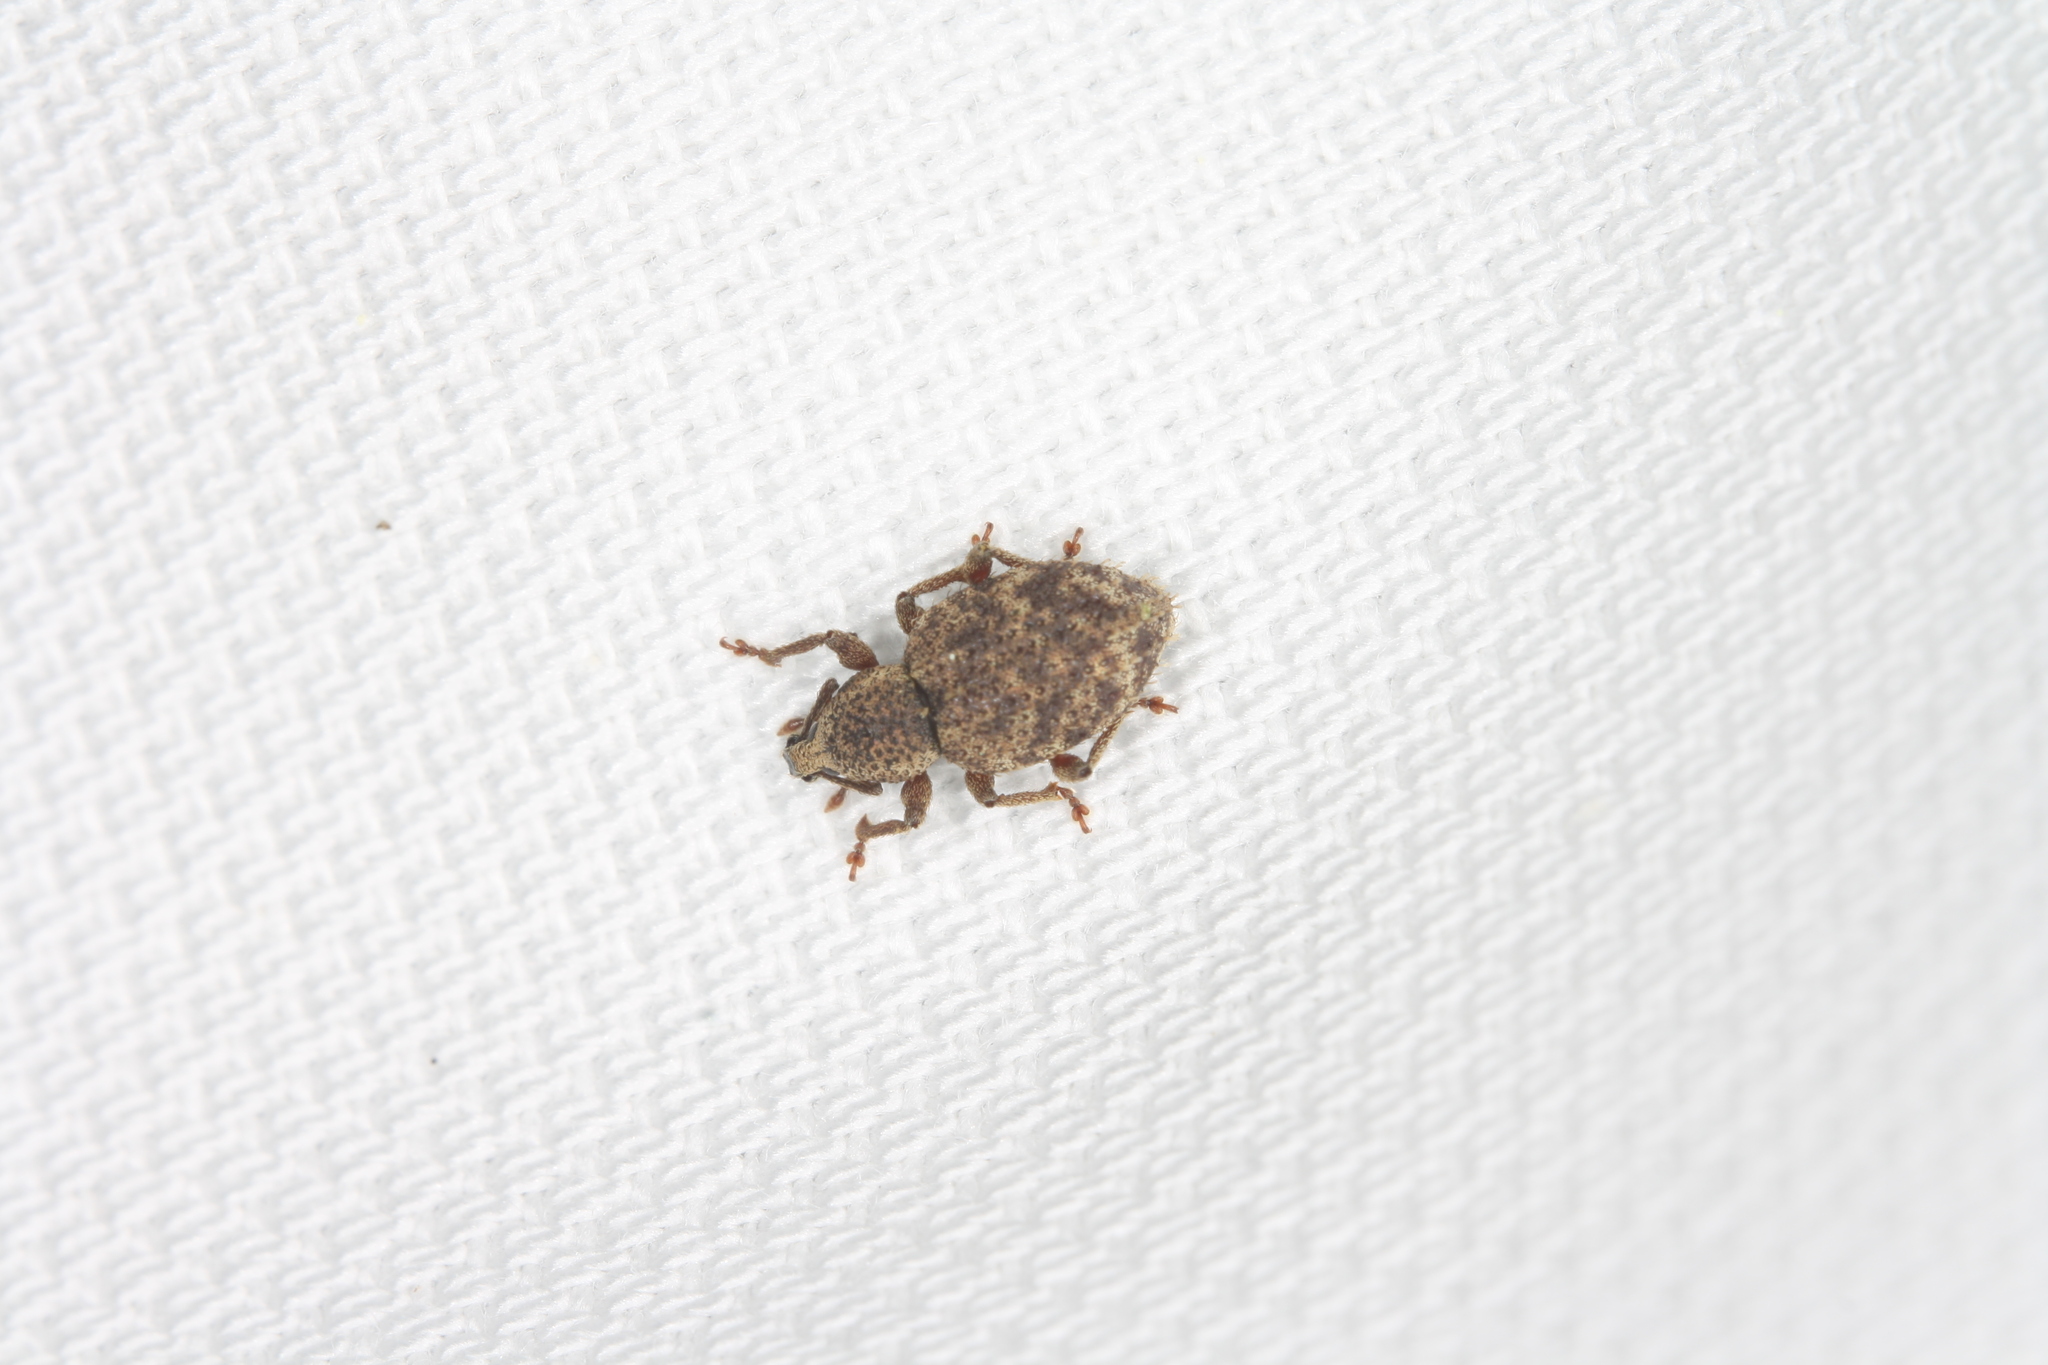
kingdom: Animalia
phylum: Arthropoda
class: Insecta
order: Coleoptera
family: Curculionidae
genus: Otiorhynchus
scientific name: Otiorhynchus carinatopunctatus
